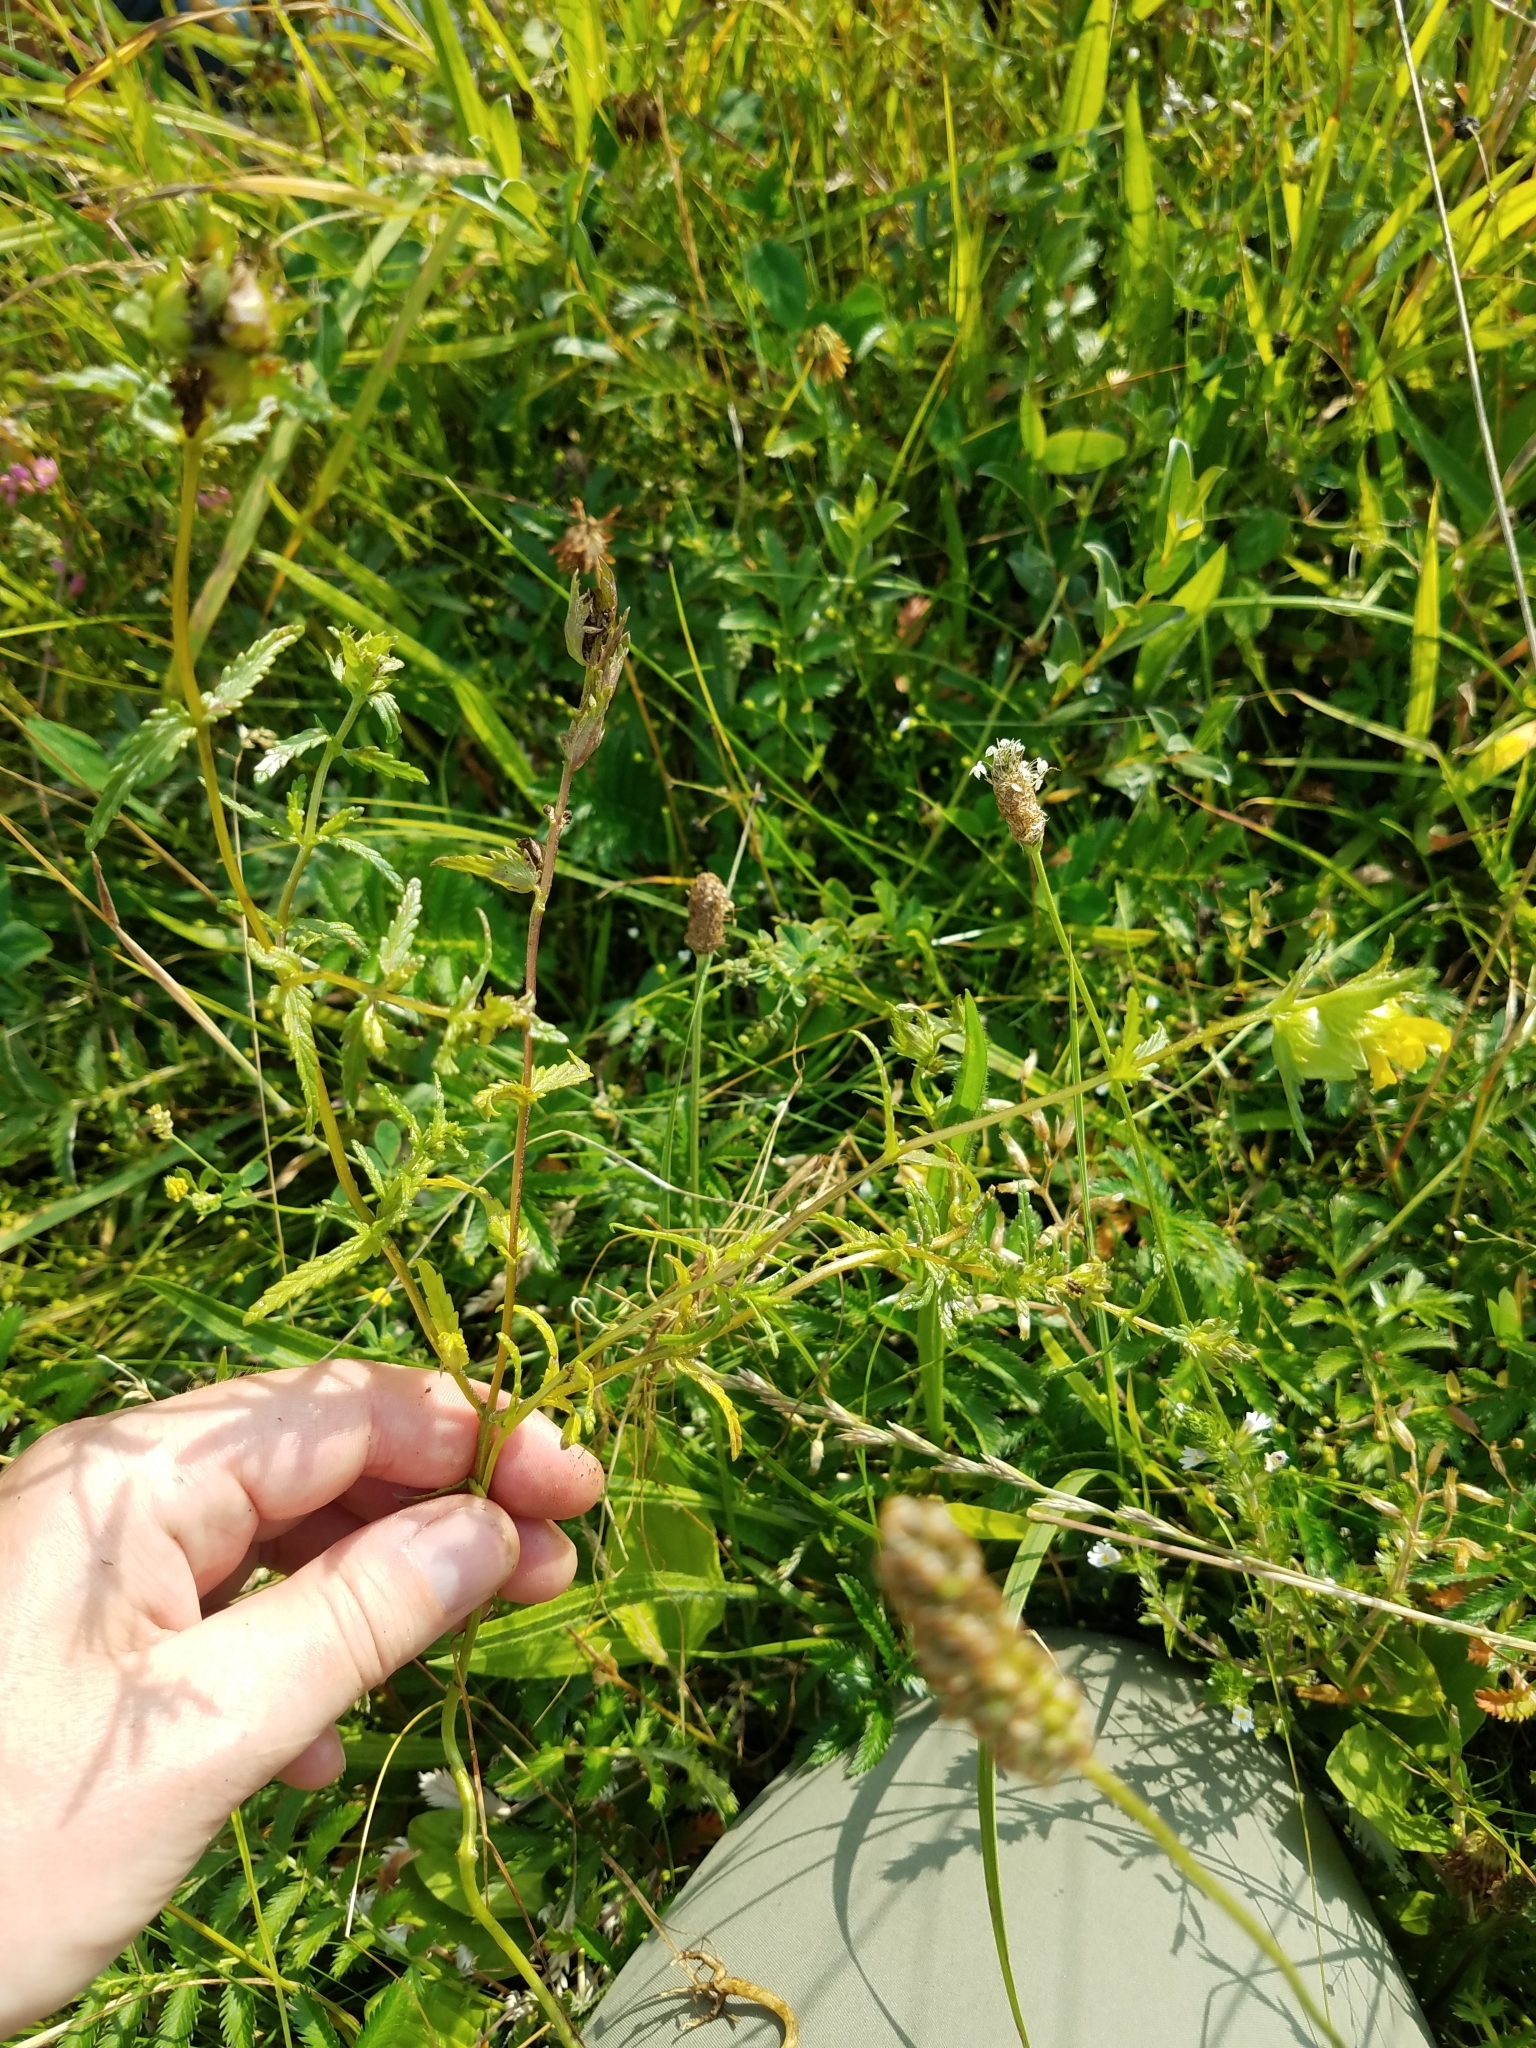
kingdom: Plantae
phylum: Tracheophyta
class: Magnoliopsida
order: Lamiales
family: Orobanchaceae
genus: Rhinanthus
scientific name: Rhinanthus minor
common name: Yellow-rattle
